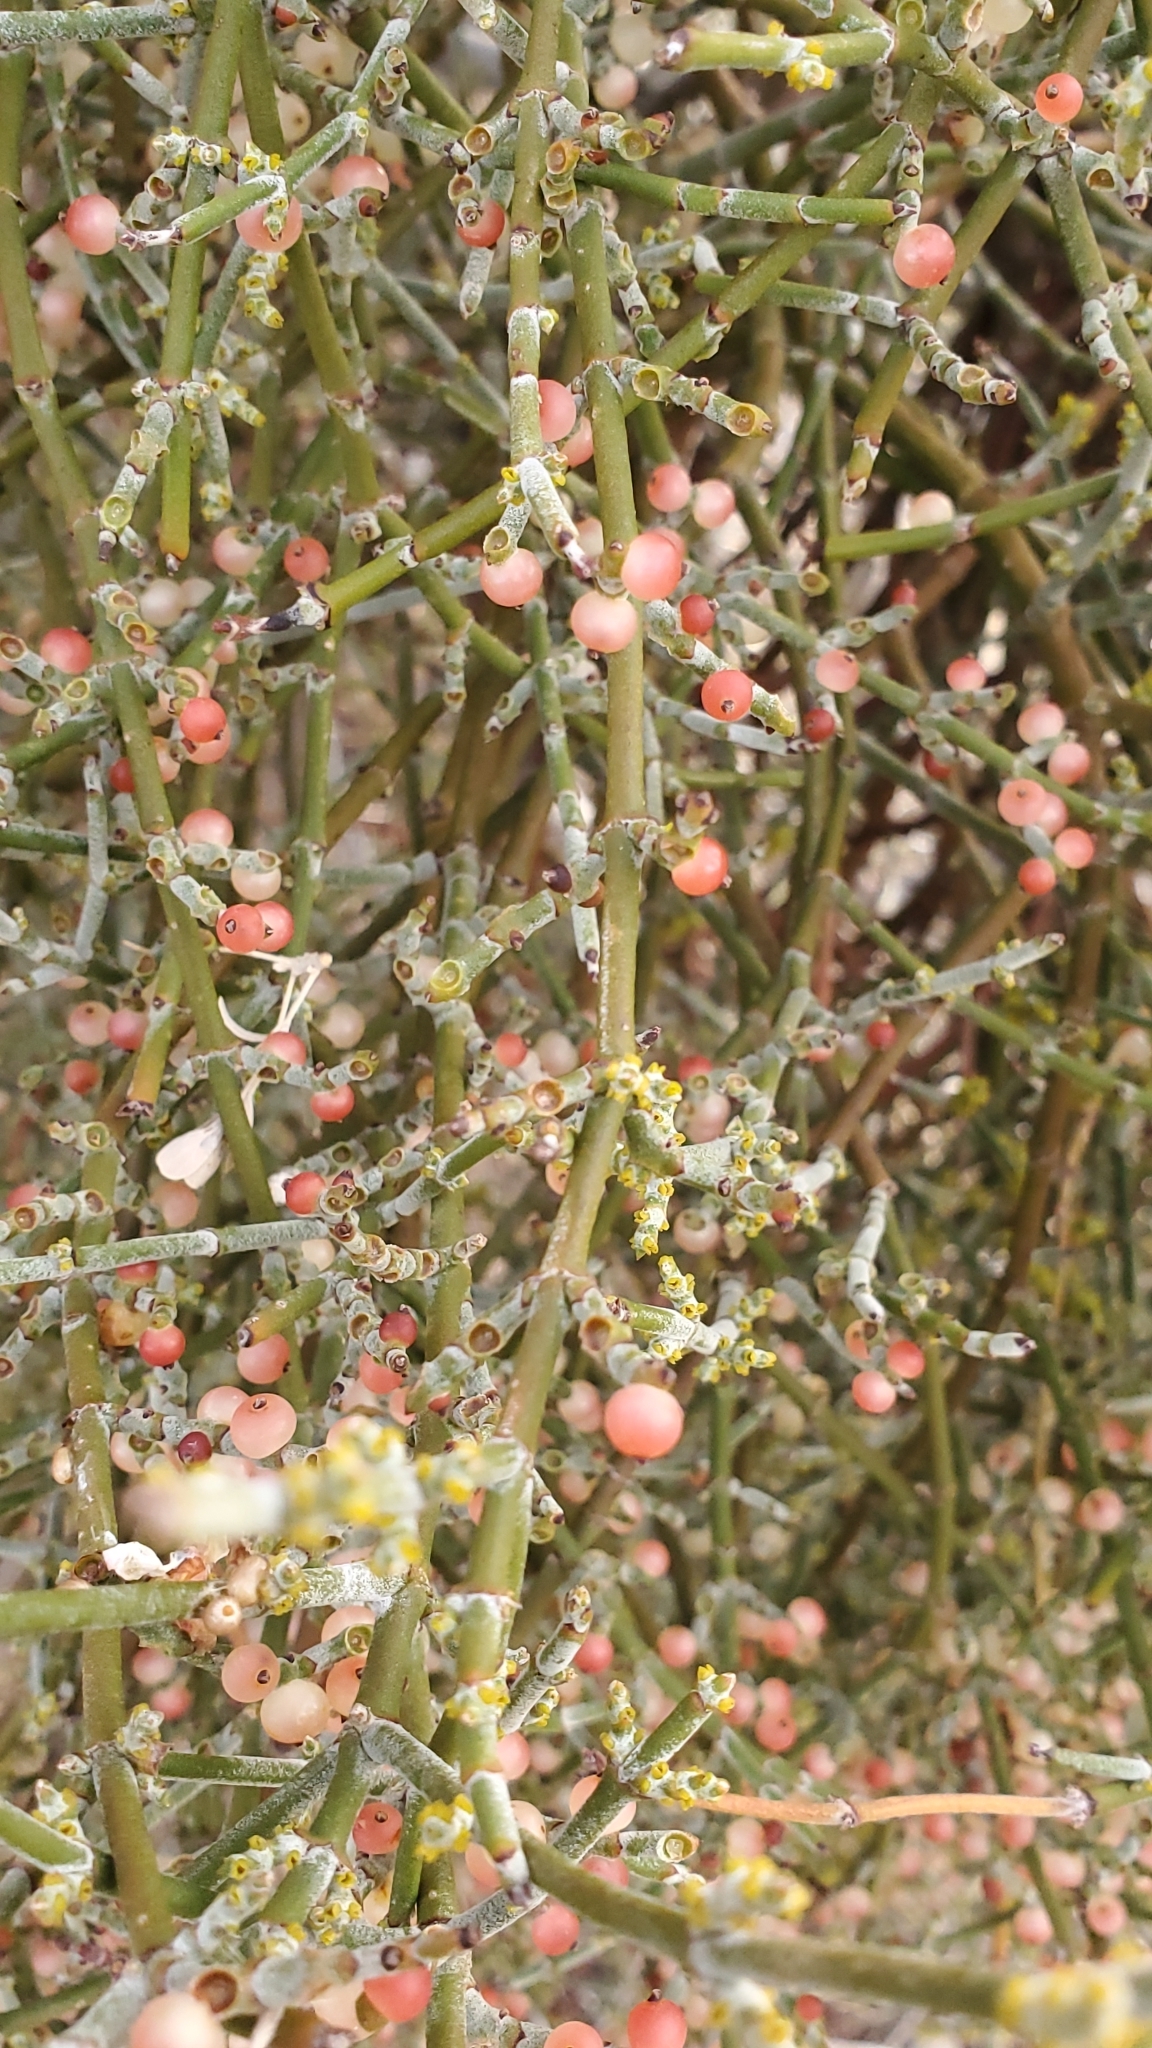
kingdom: Plantae
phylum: Tracheophyta
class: Magnoliopsida
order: Santalales
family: Viscaceae
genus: Phoradendron
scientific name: Phoradendron californicum
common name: Acacia mistletoe
